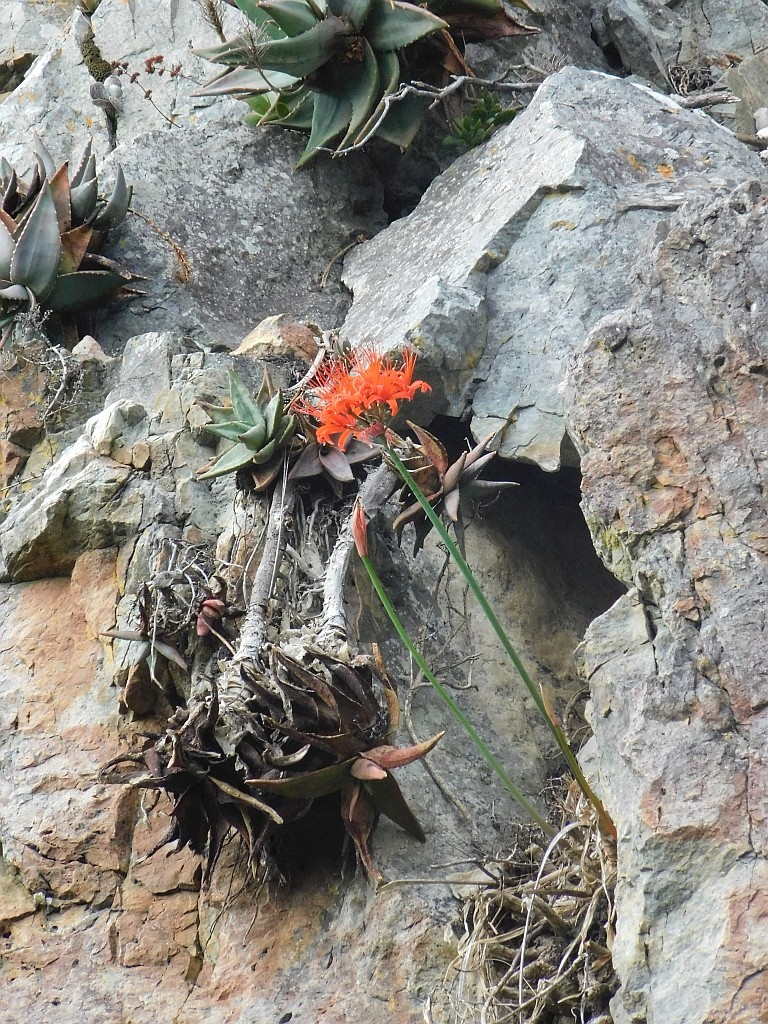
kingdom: Plantae
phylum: Tracheophyta
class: Liliopsida
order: Asparagales
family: Amaryllidaceae
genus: Nerine
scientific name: Nerine sarniensis
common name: Guernsey-lily
